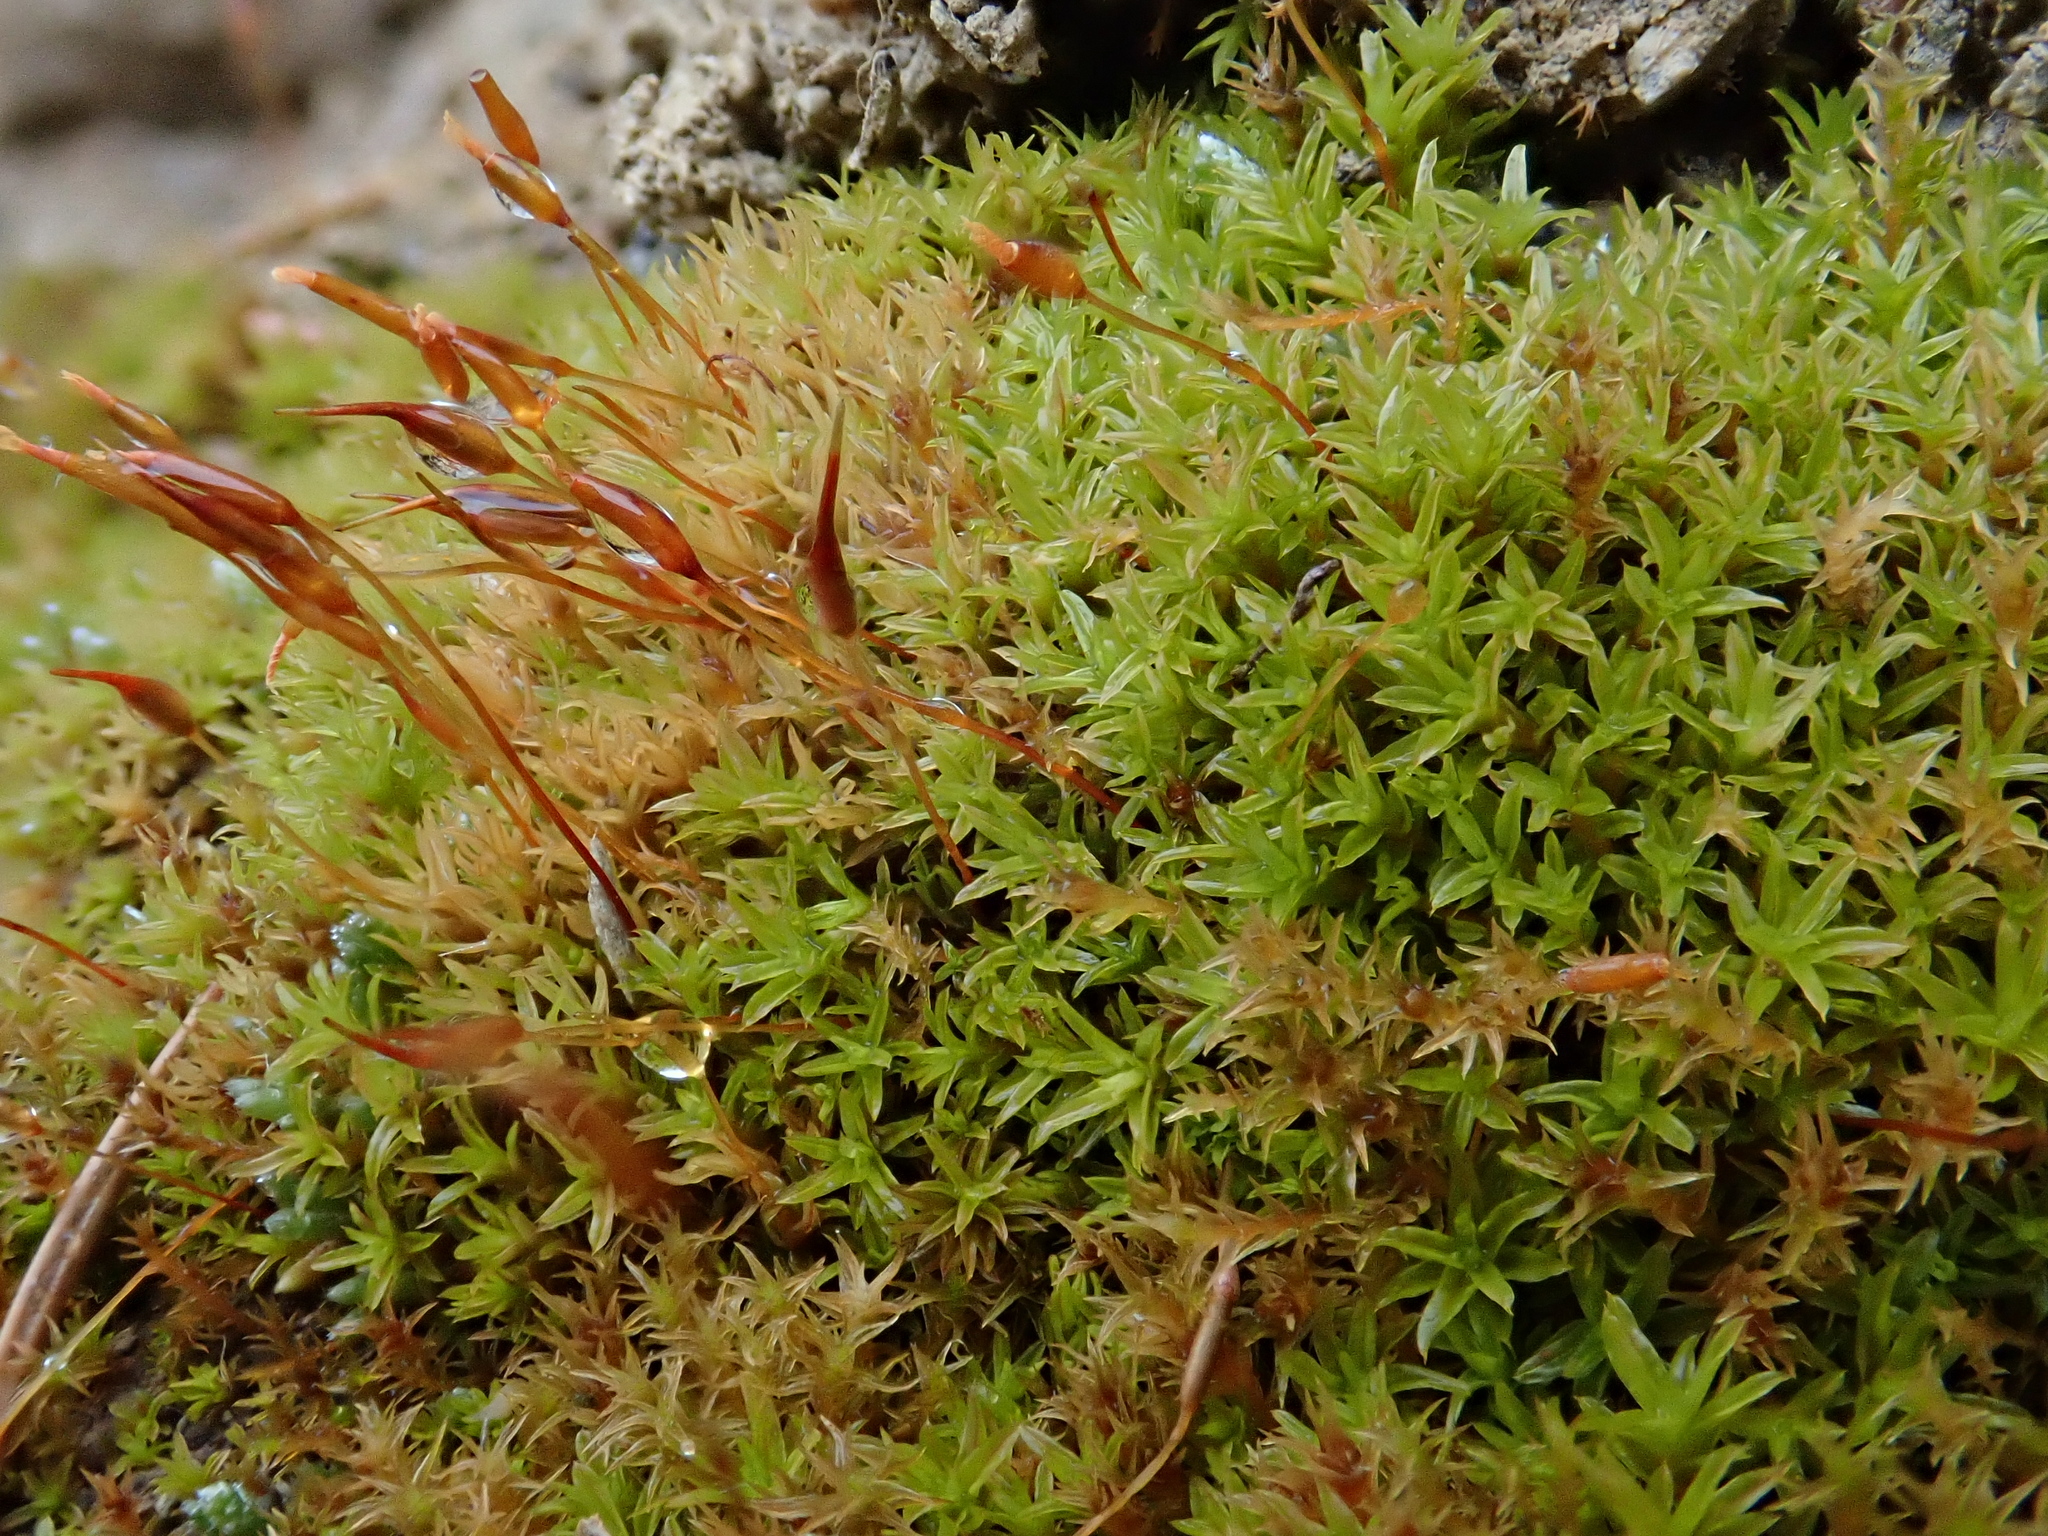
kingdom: Plantae
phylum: Bryophyta
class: Bryopsida
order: Pottiales
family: Pottiaceae
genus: Barbula
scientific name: Barbula unguiculata
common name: Prickly beard moss
